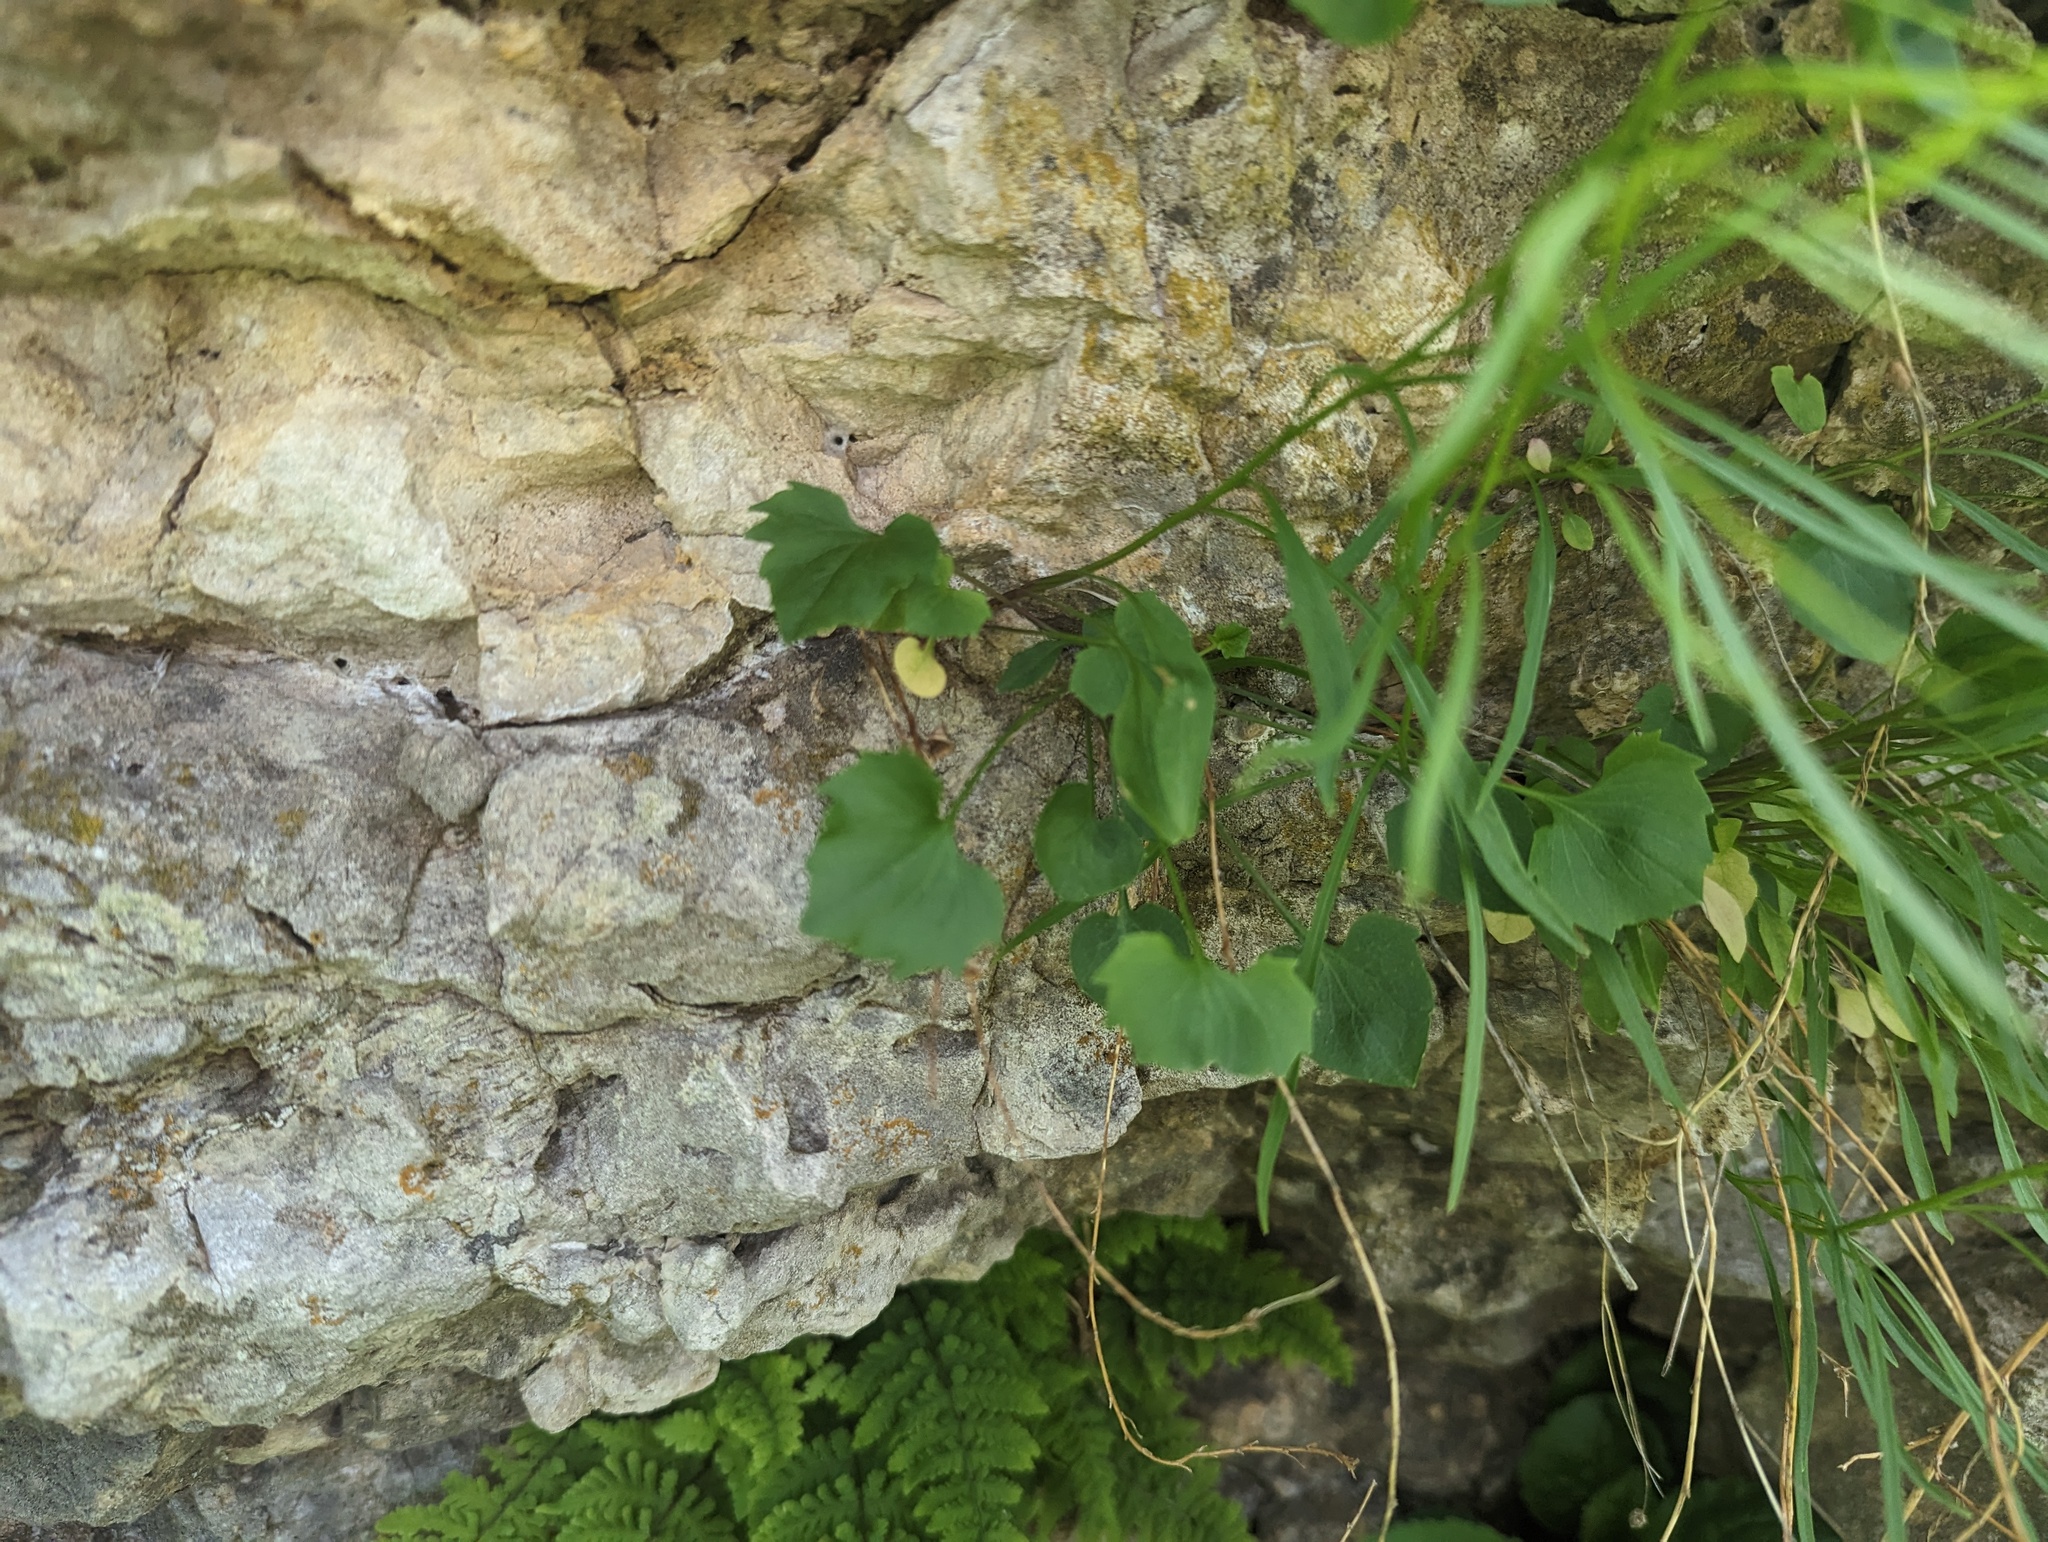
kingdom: Plantae
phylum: Tracheophyta
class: Magnoliopsida
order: Asterales
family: Campanulaceae
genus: Campanula
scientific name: Campanula intercedens
